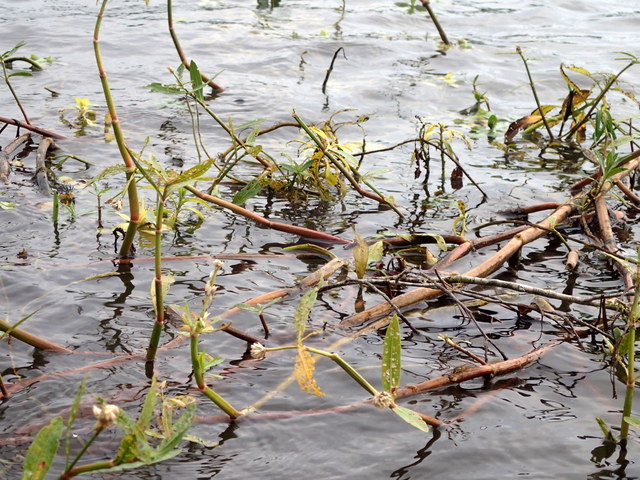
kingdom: Plantae
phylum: Tracheophyta
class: Magnoliopsida
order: Caryophyllales
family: Amaranthaceae
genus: Alternanthera
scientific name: Alternanthera philoxeroides
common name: Alligatorweed
